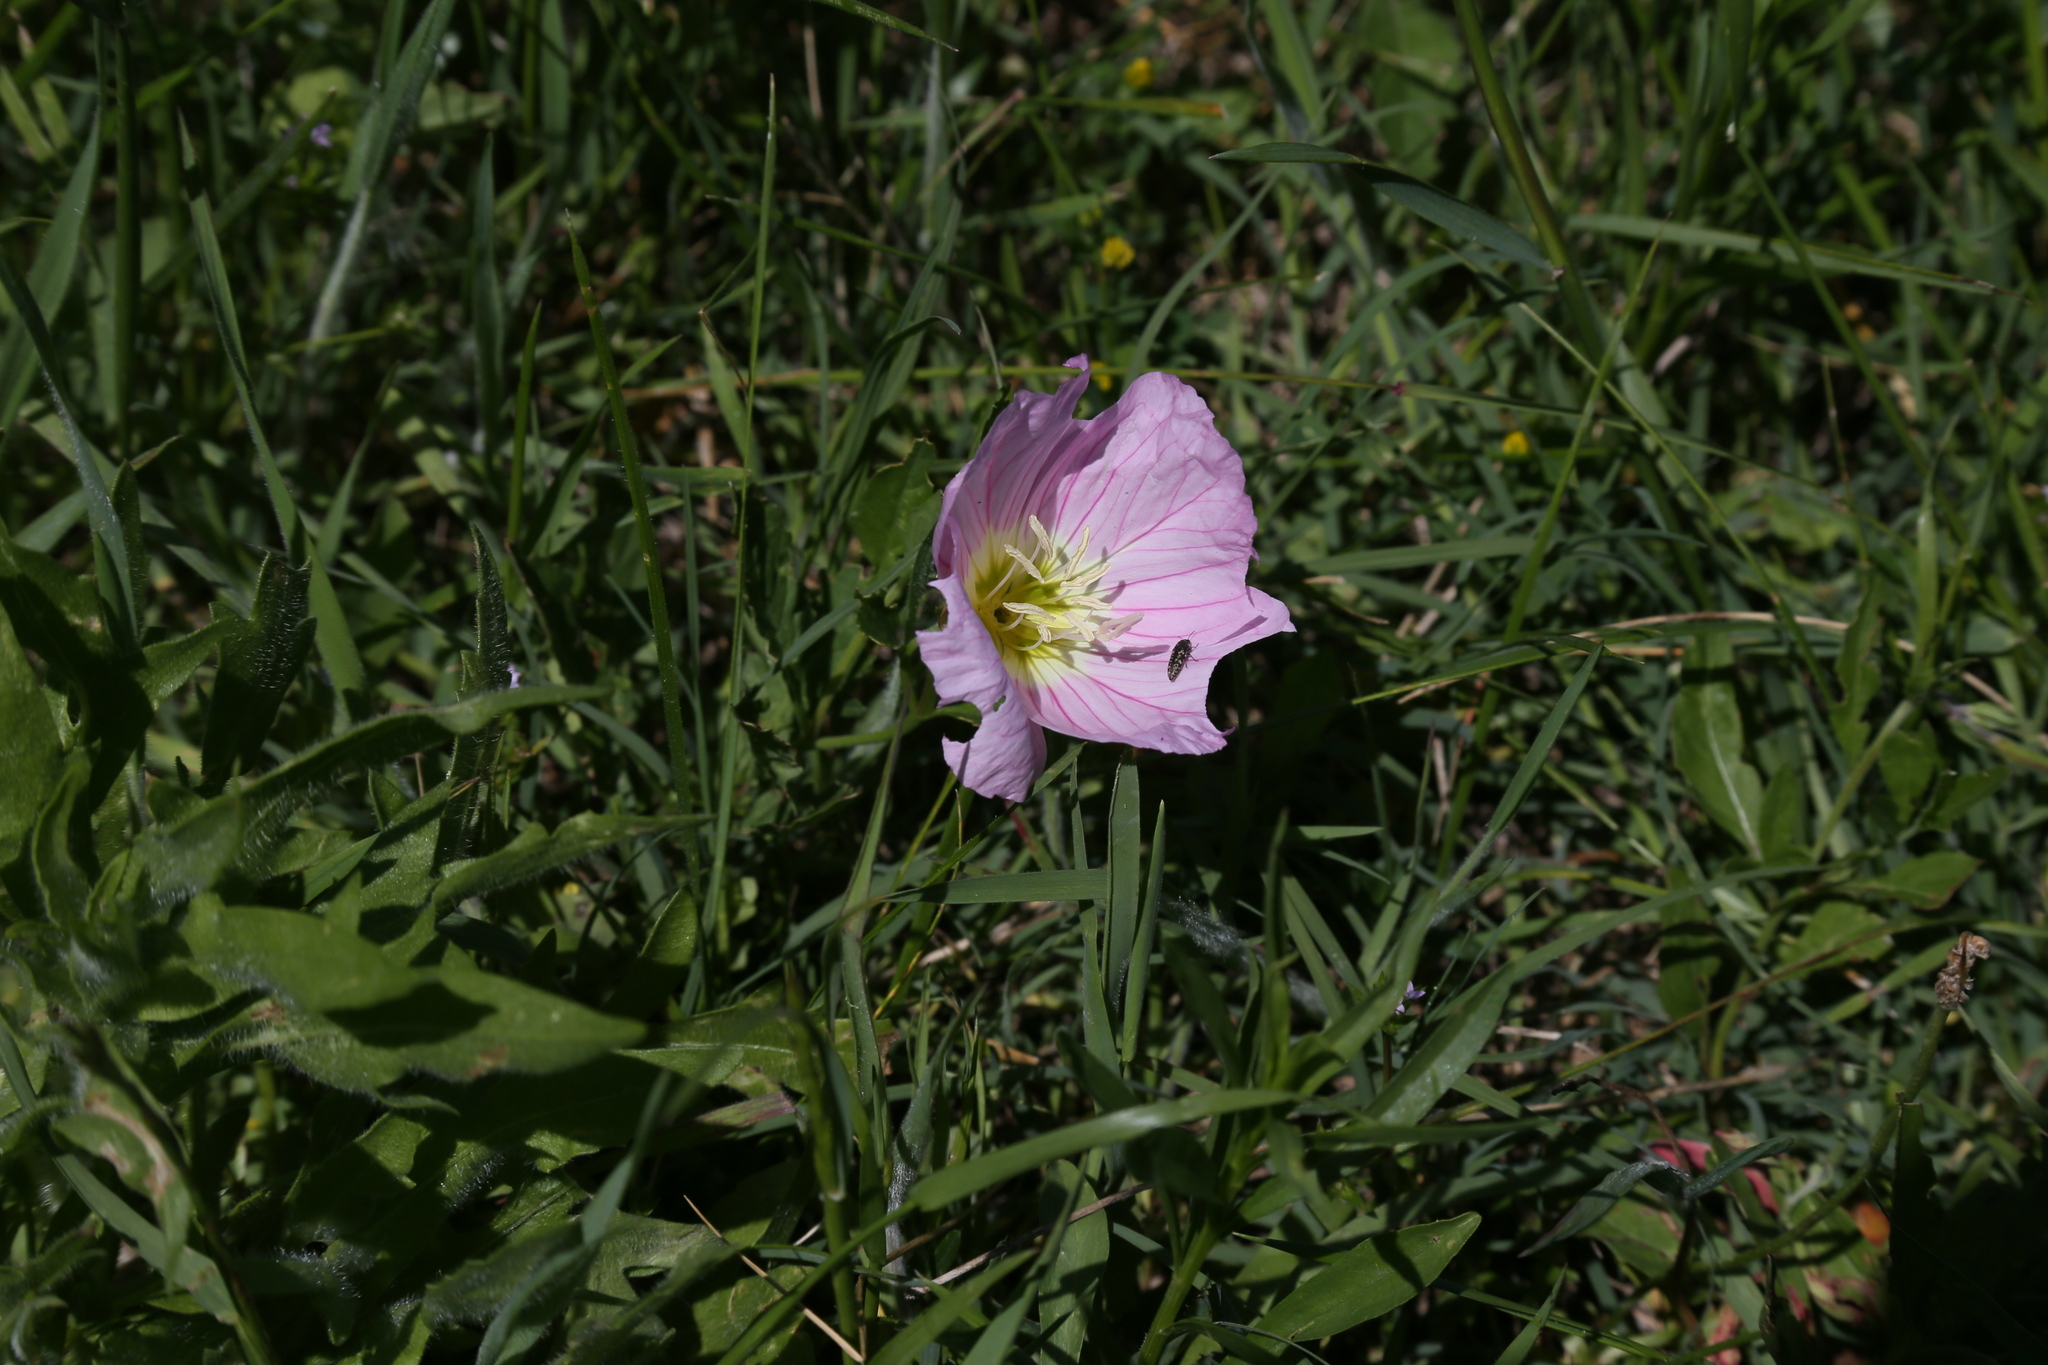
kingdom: Plantae
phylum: Tracheophyta
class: Magnoliopsida
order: Myrtales
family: Onagraceae
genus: Oenothera
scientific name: Oenothera speciosa
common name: White evening-primrose
